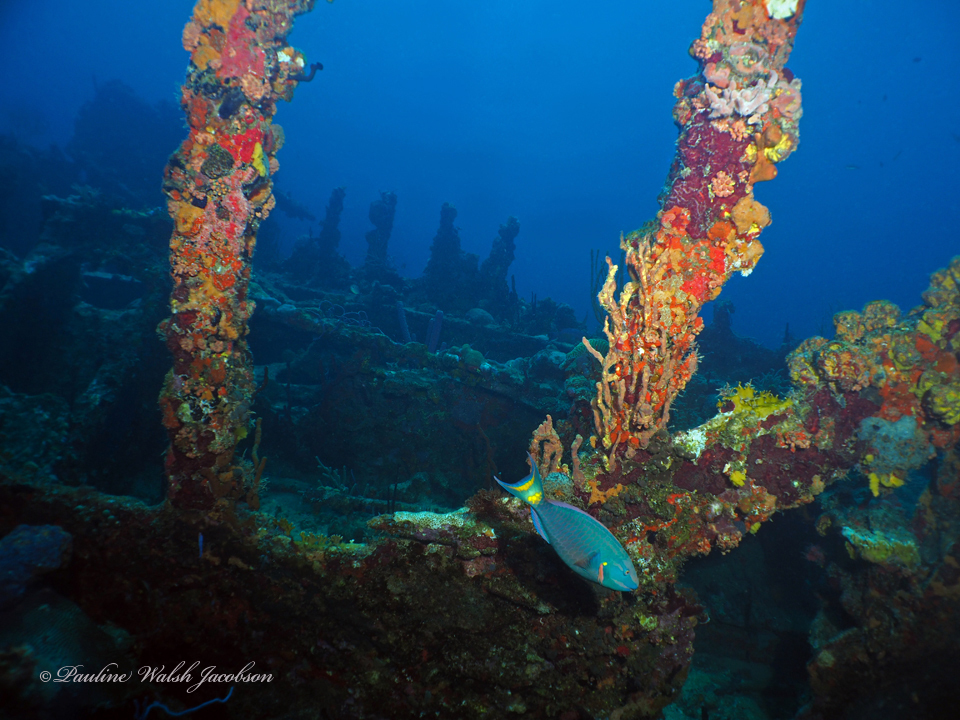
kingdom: Animalia
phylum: Chordata
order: Perciformes
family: Scaridae
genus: Sparisoma
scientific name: Sparisoma viride
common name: Stoplight parrotfish
